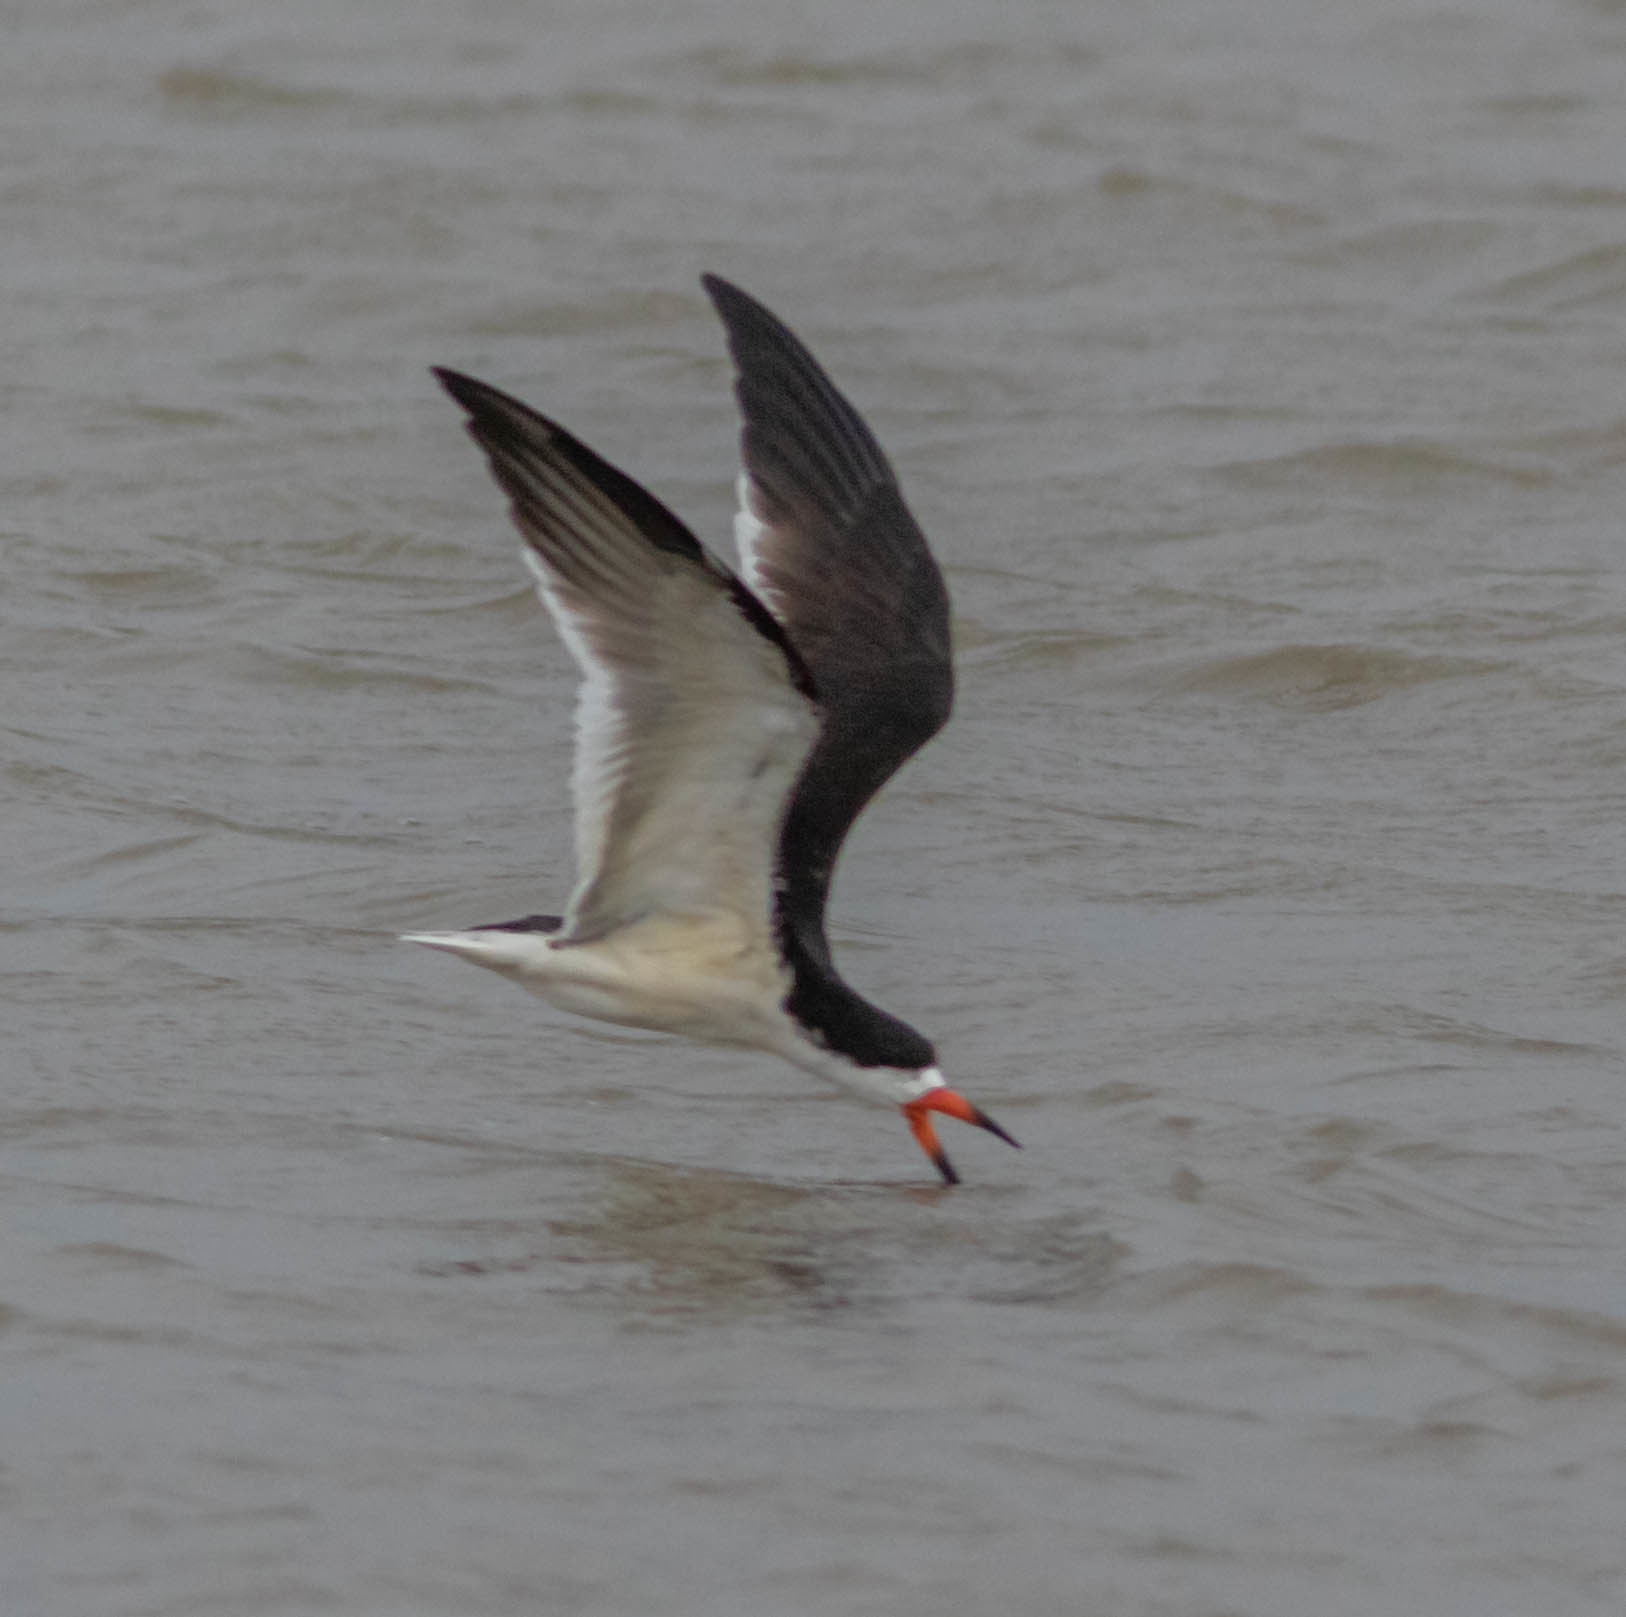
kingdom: Animalia
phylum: Chordata
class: Aves
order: Charadriiformes
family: Laridae
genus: Rynchops
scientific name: Rynchops niger
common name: Black skimmer
